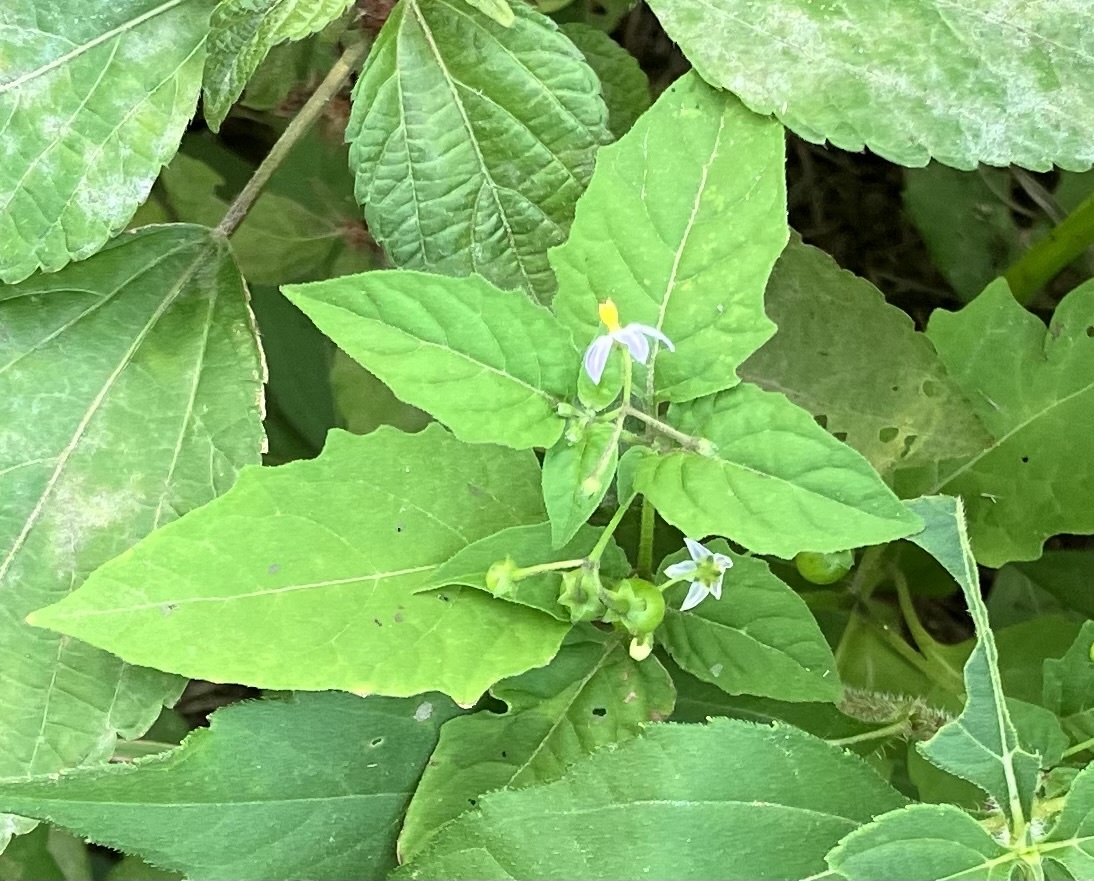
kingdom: Plantae
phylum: Tracheophyta
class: Magnoliopsida
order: Solanales
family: Solanaceae
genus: Solanum
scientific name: Solanum emulans
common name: Eastern black nightshade
